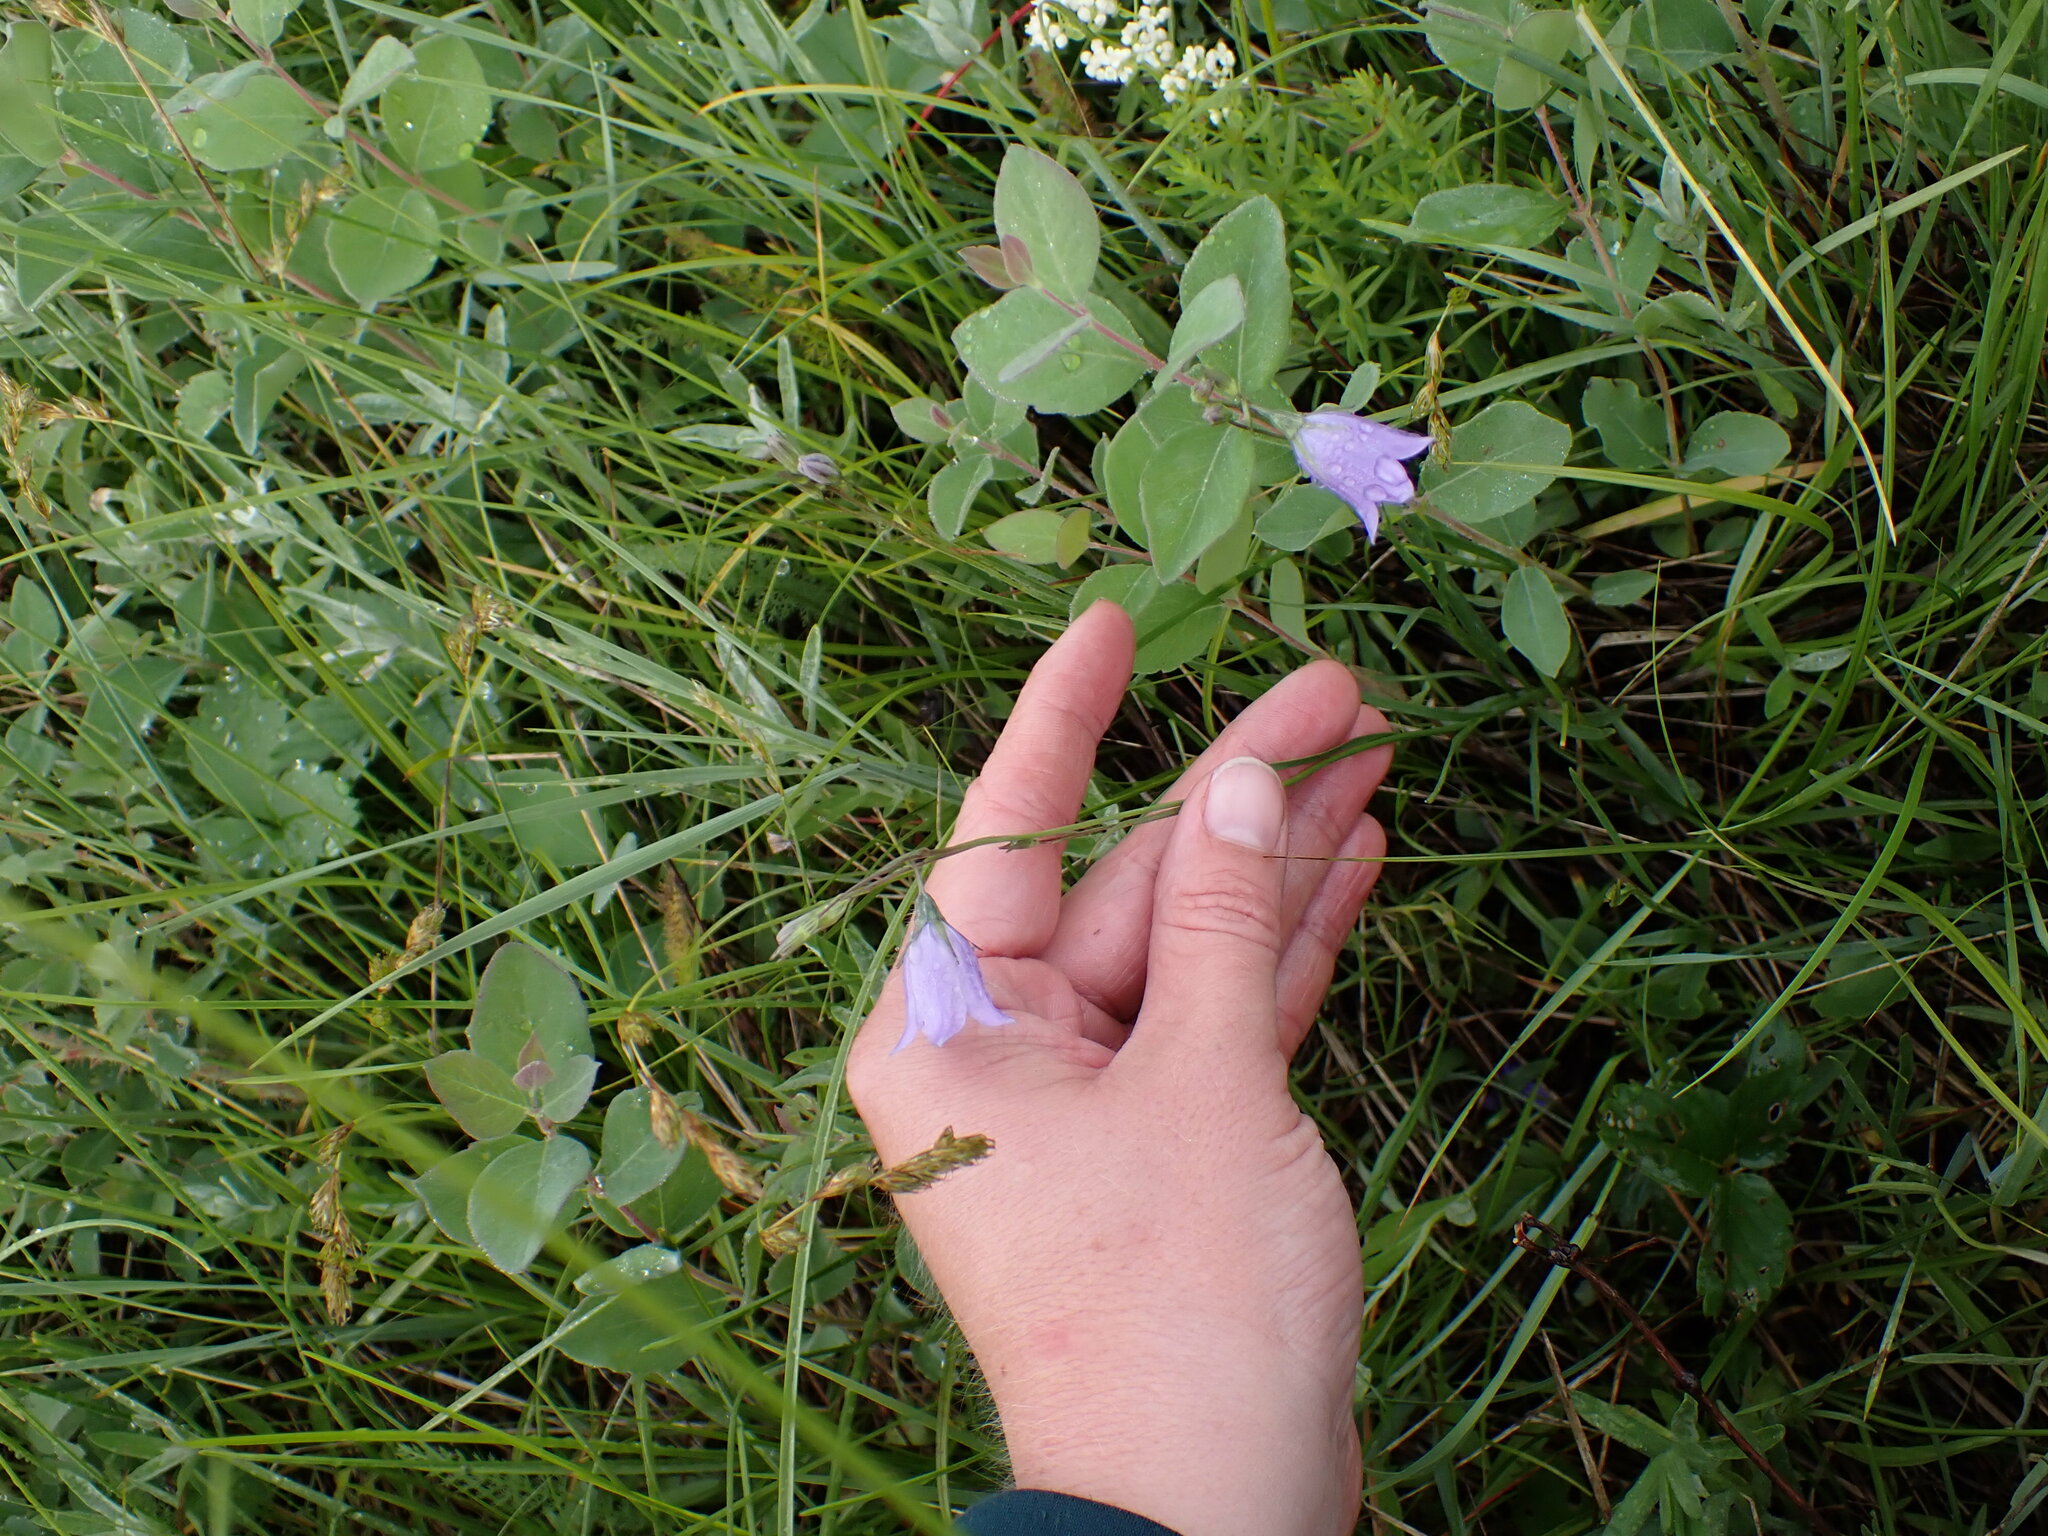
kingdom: Plantae
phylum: Tracheophyta
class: Magnoliopsida
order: Asterales
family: Campanulaceae
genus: Campanula
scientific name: Campanula alaskana
